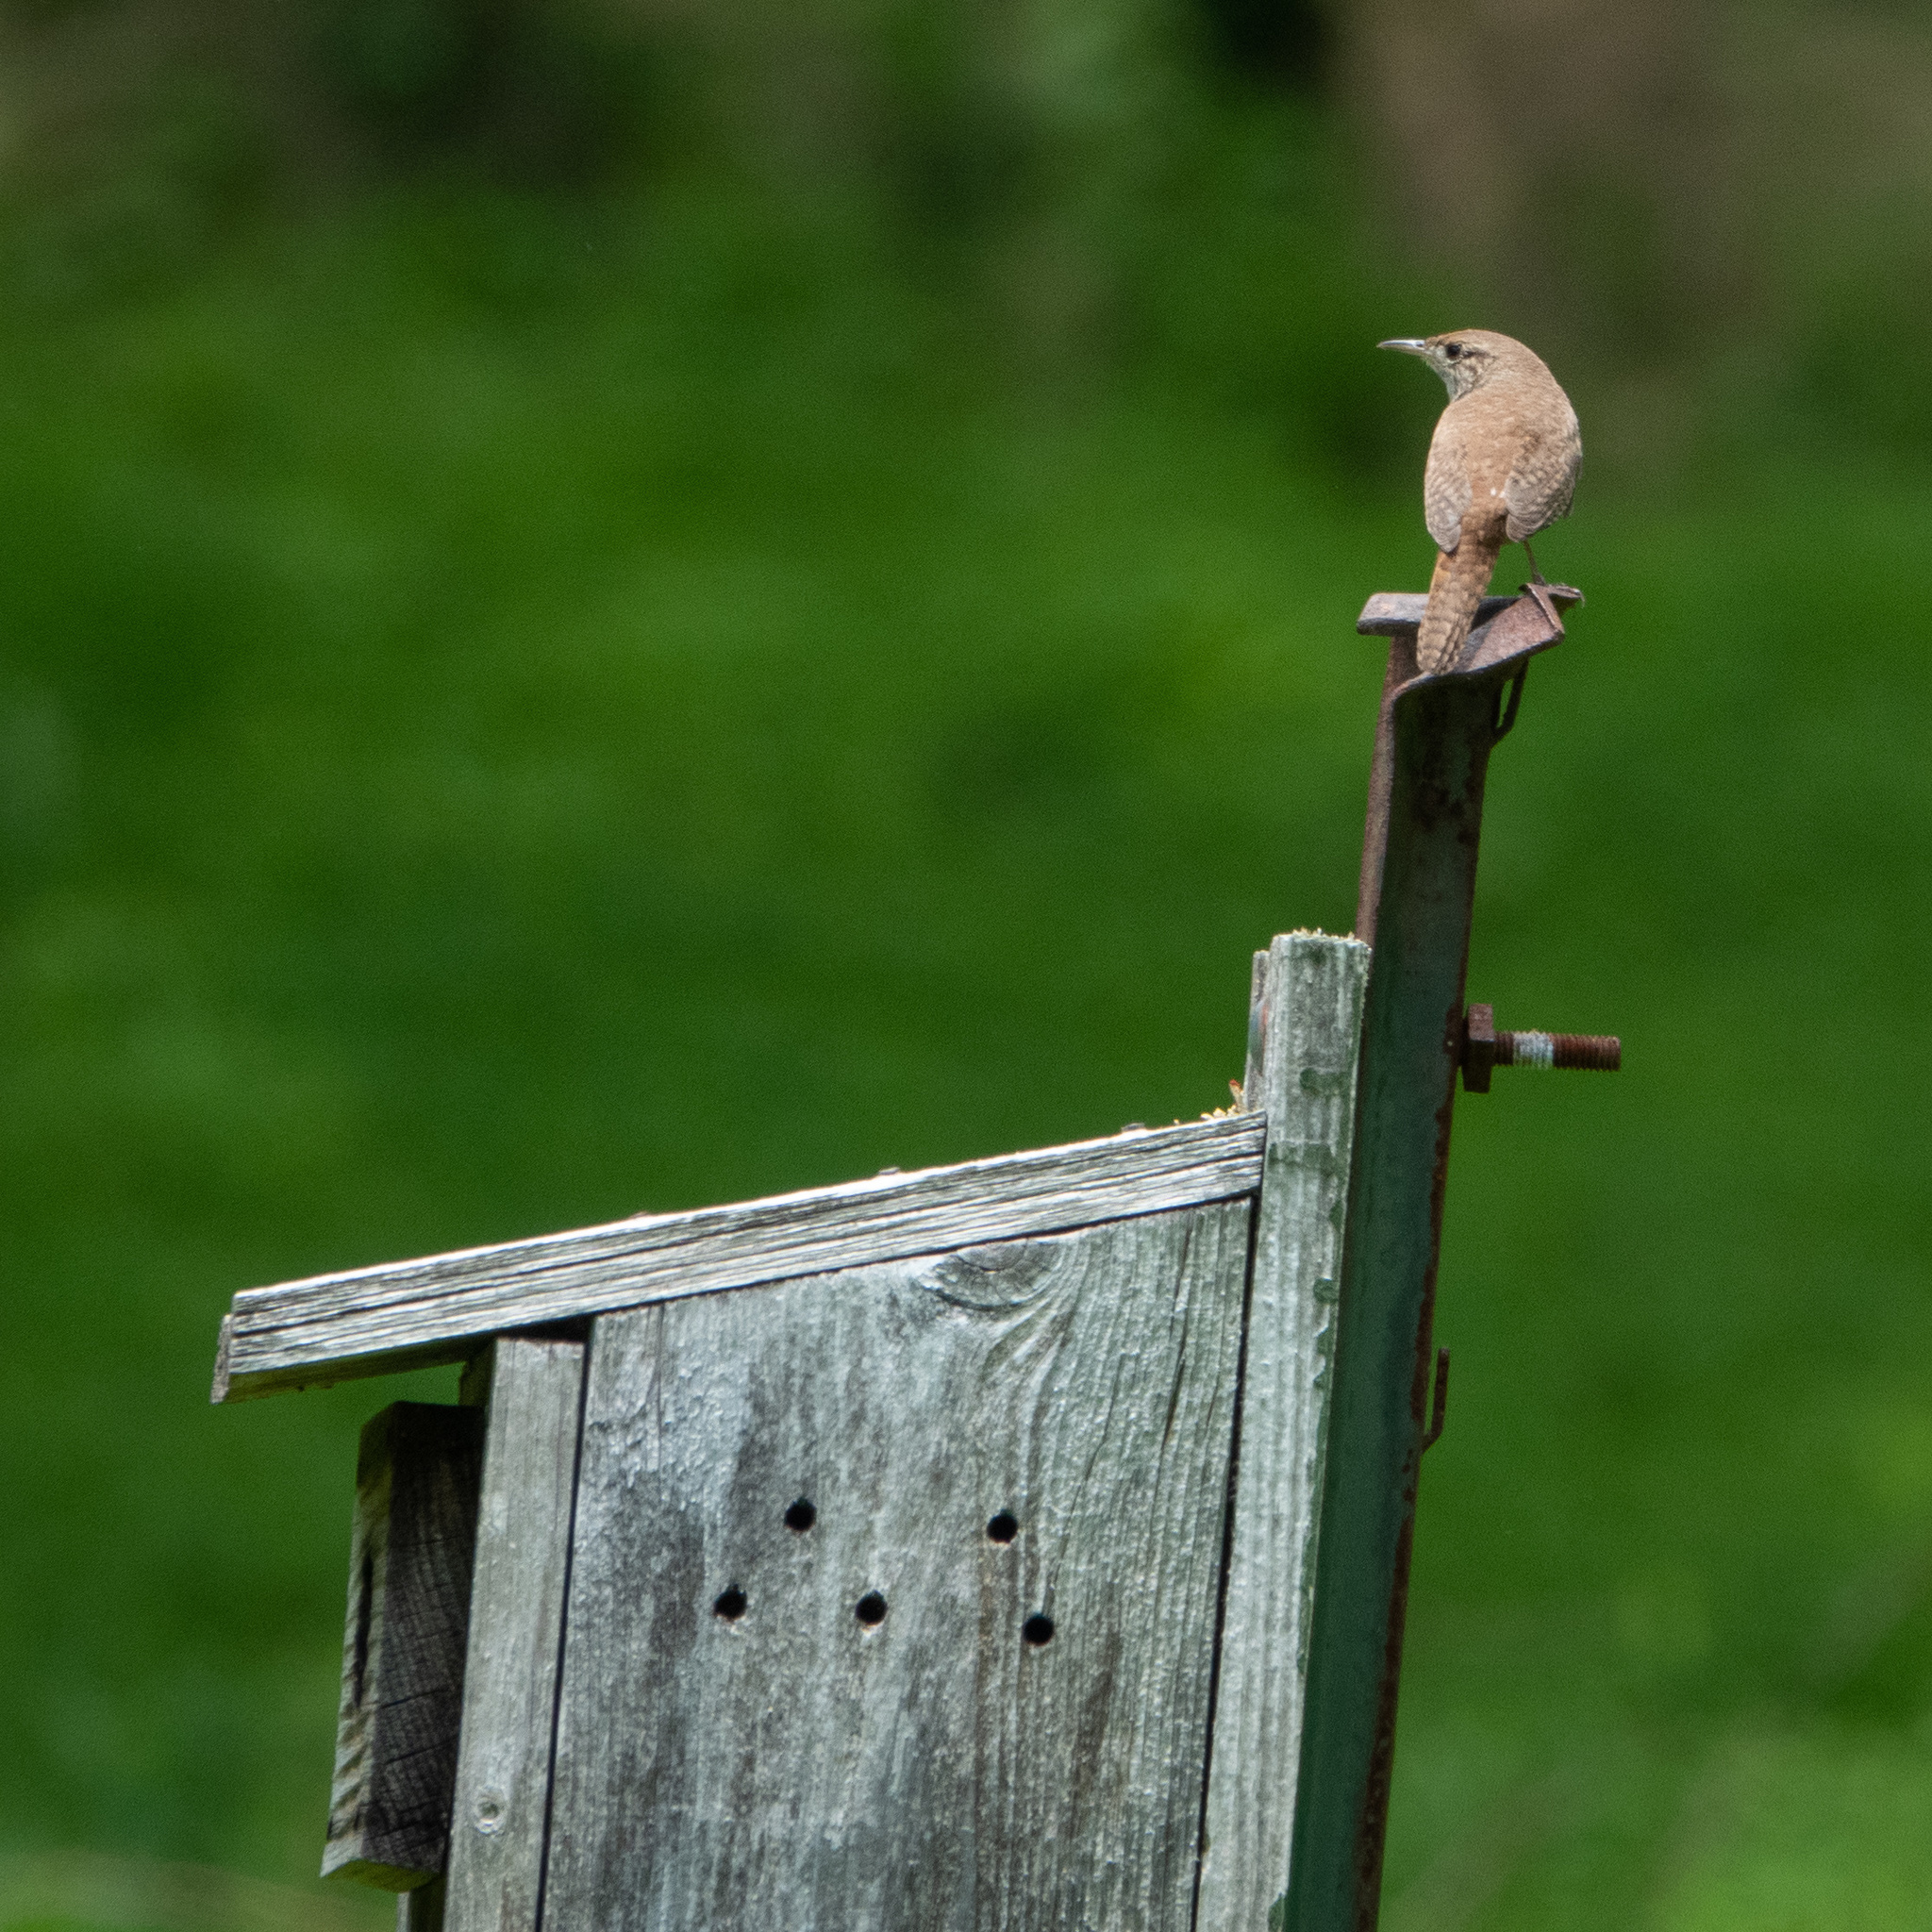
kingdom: Animalia
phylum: Chordata
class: Aves
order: Passeriformes
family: Troglodytidae
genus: Troglodytes
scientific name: Troglodytes aedon
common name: House wren
